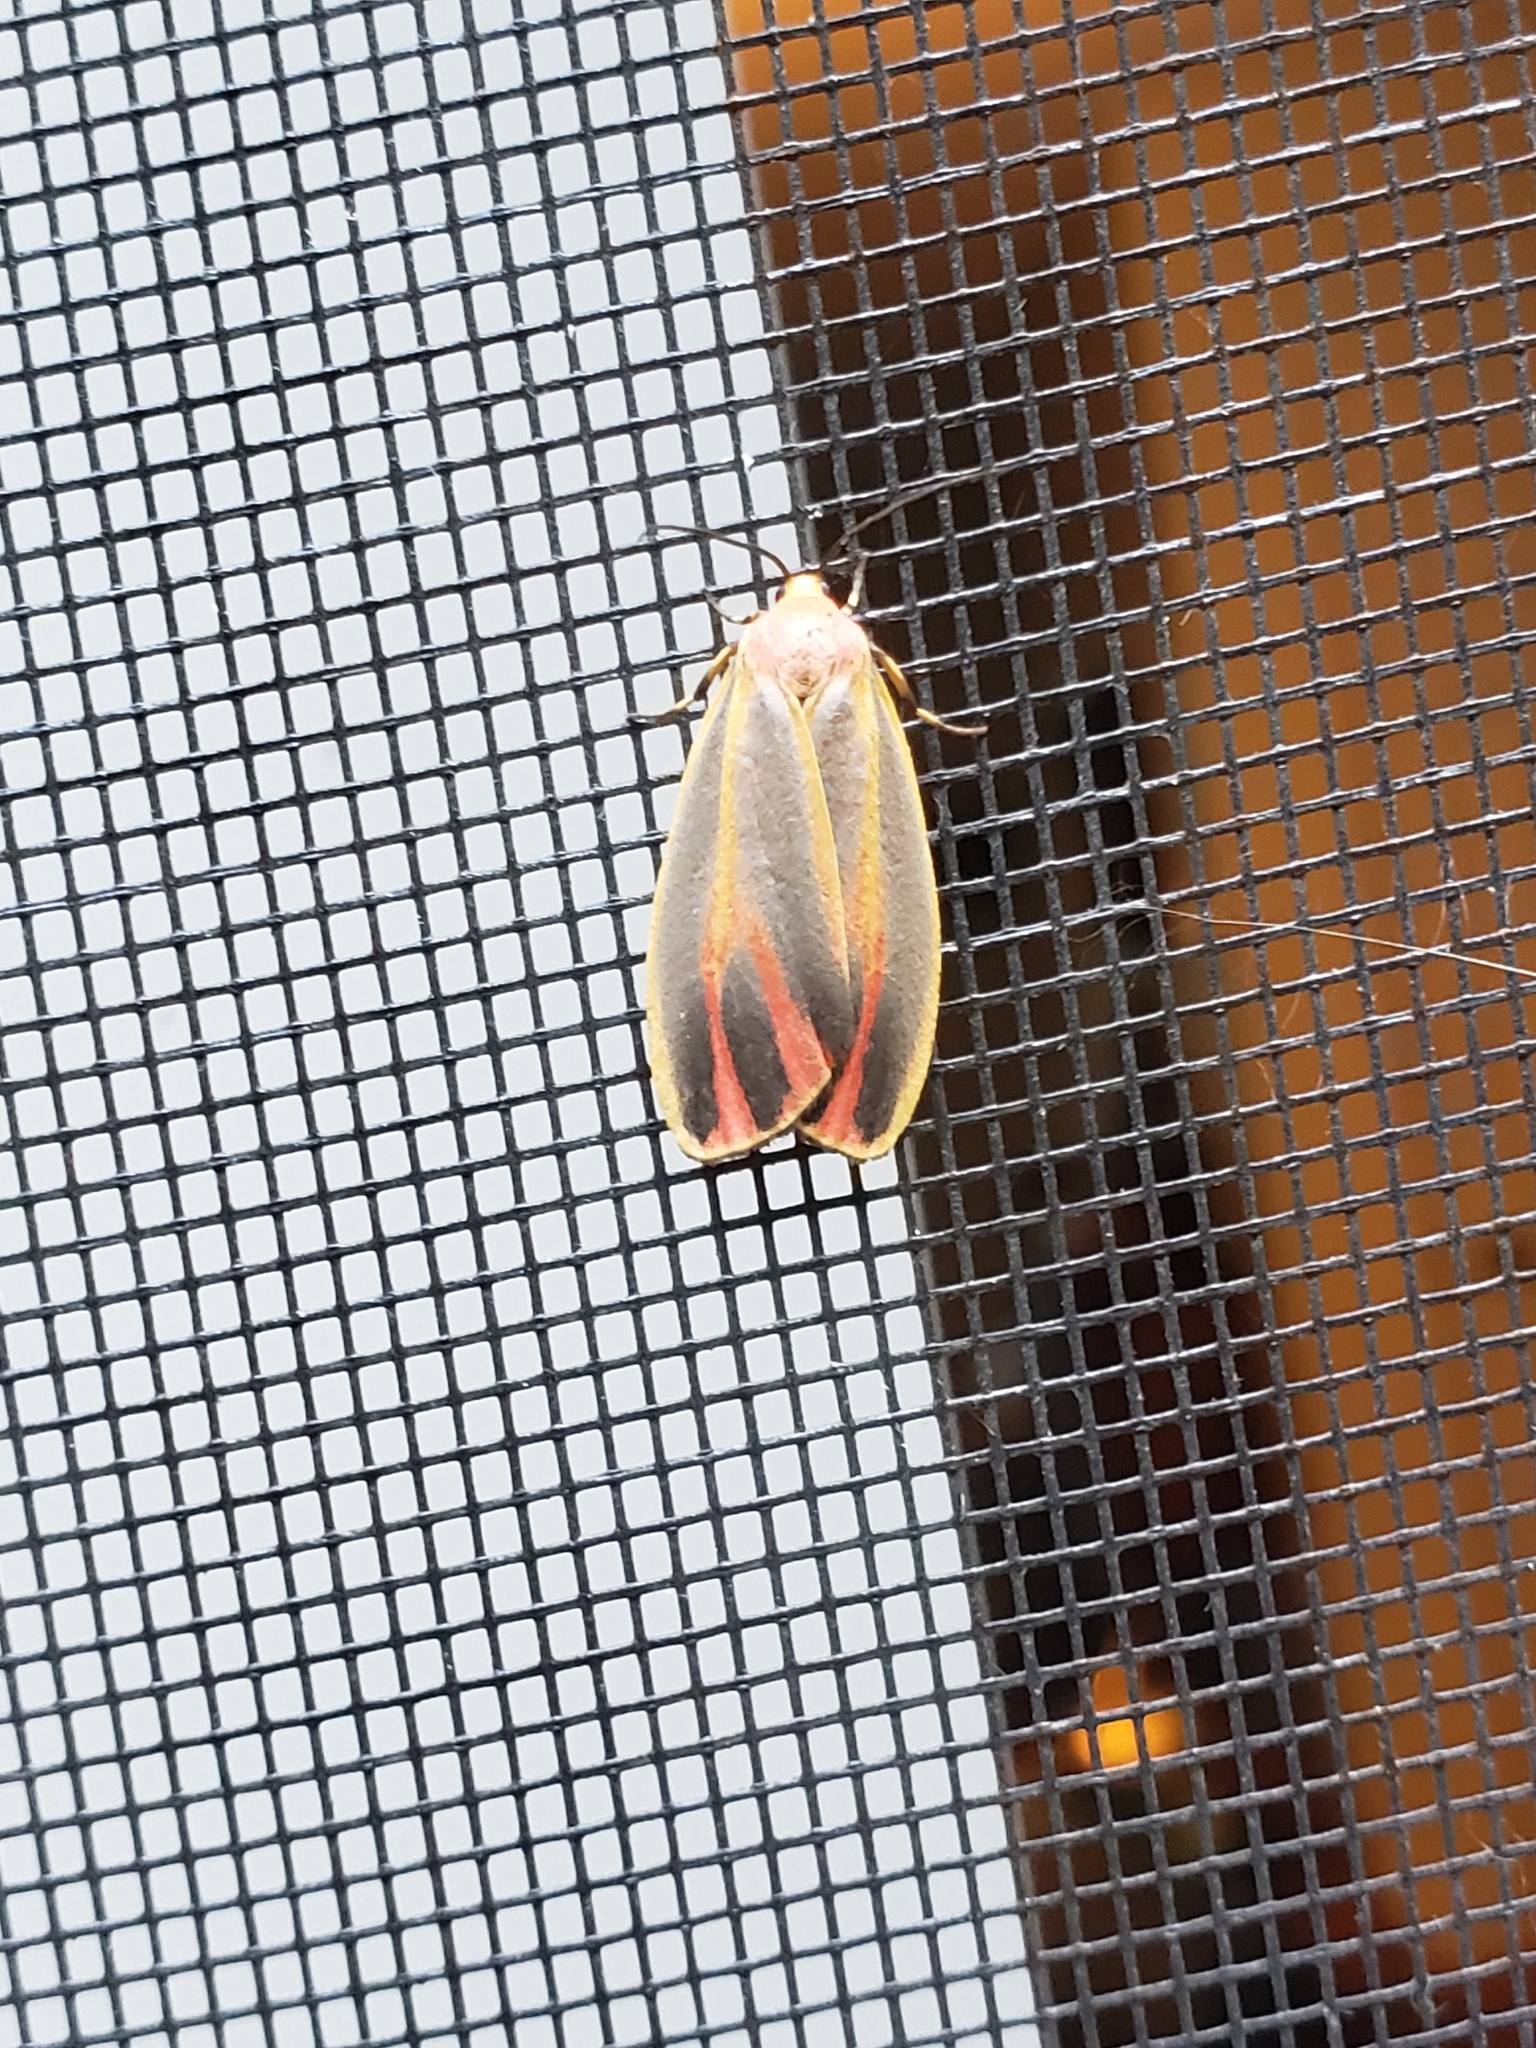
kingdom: Animalia
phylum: Arthropoda
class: Insecta
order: Lepidoptera
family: Erebidae
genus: Hypoprepia
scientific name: Hypoprepia fucosa
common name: Painted lichen moth
